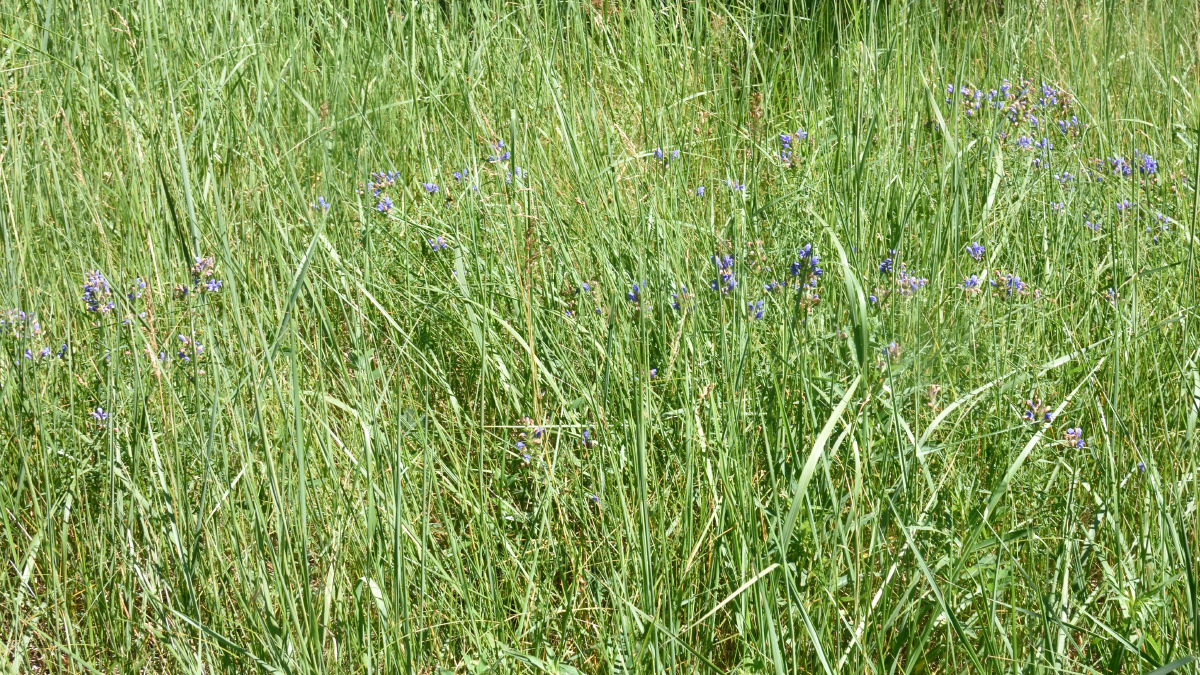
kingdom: Plantae
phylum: Tracheophyta
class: Magnoliopsida
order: Lamiales
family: Lamiaceae
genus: Dracocephalum
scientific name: Dracocephalum ruyschiana
